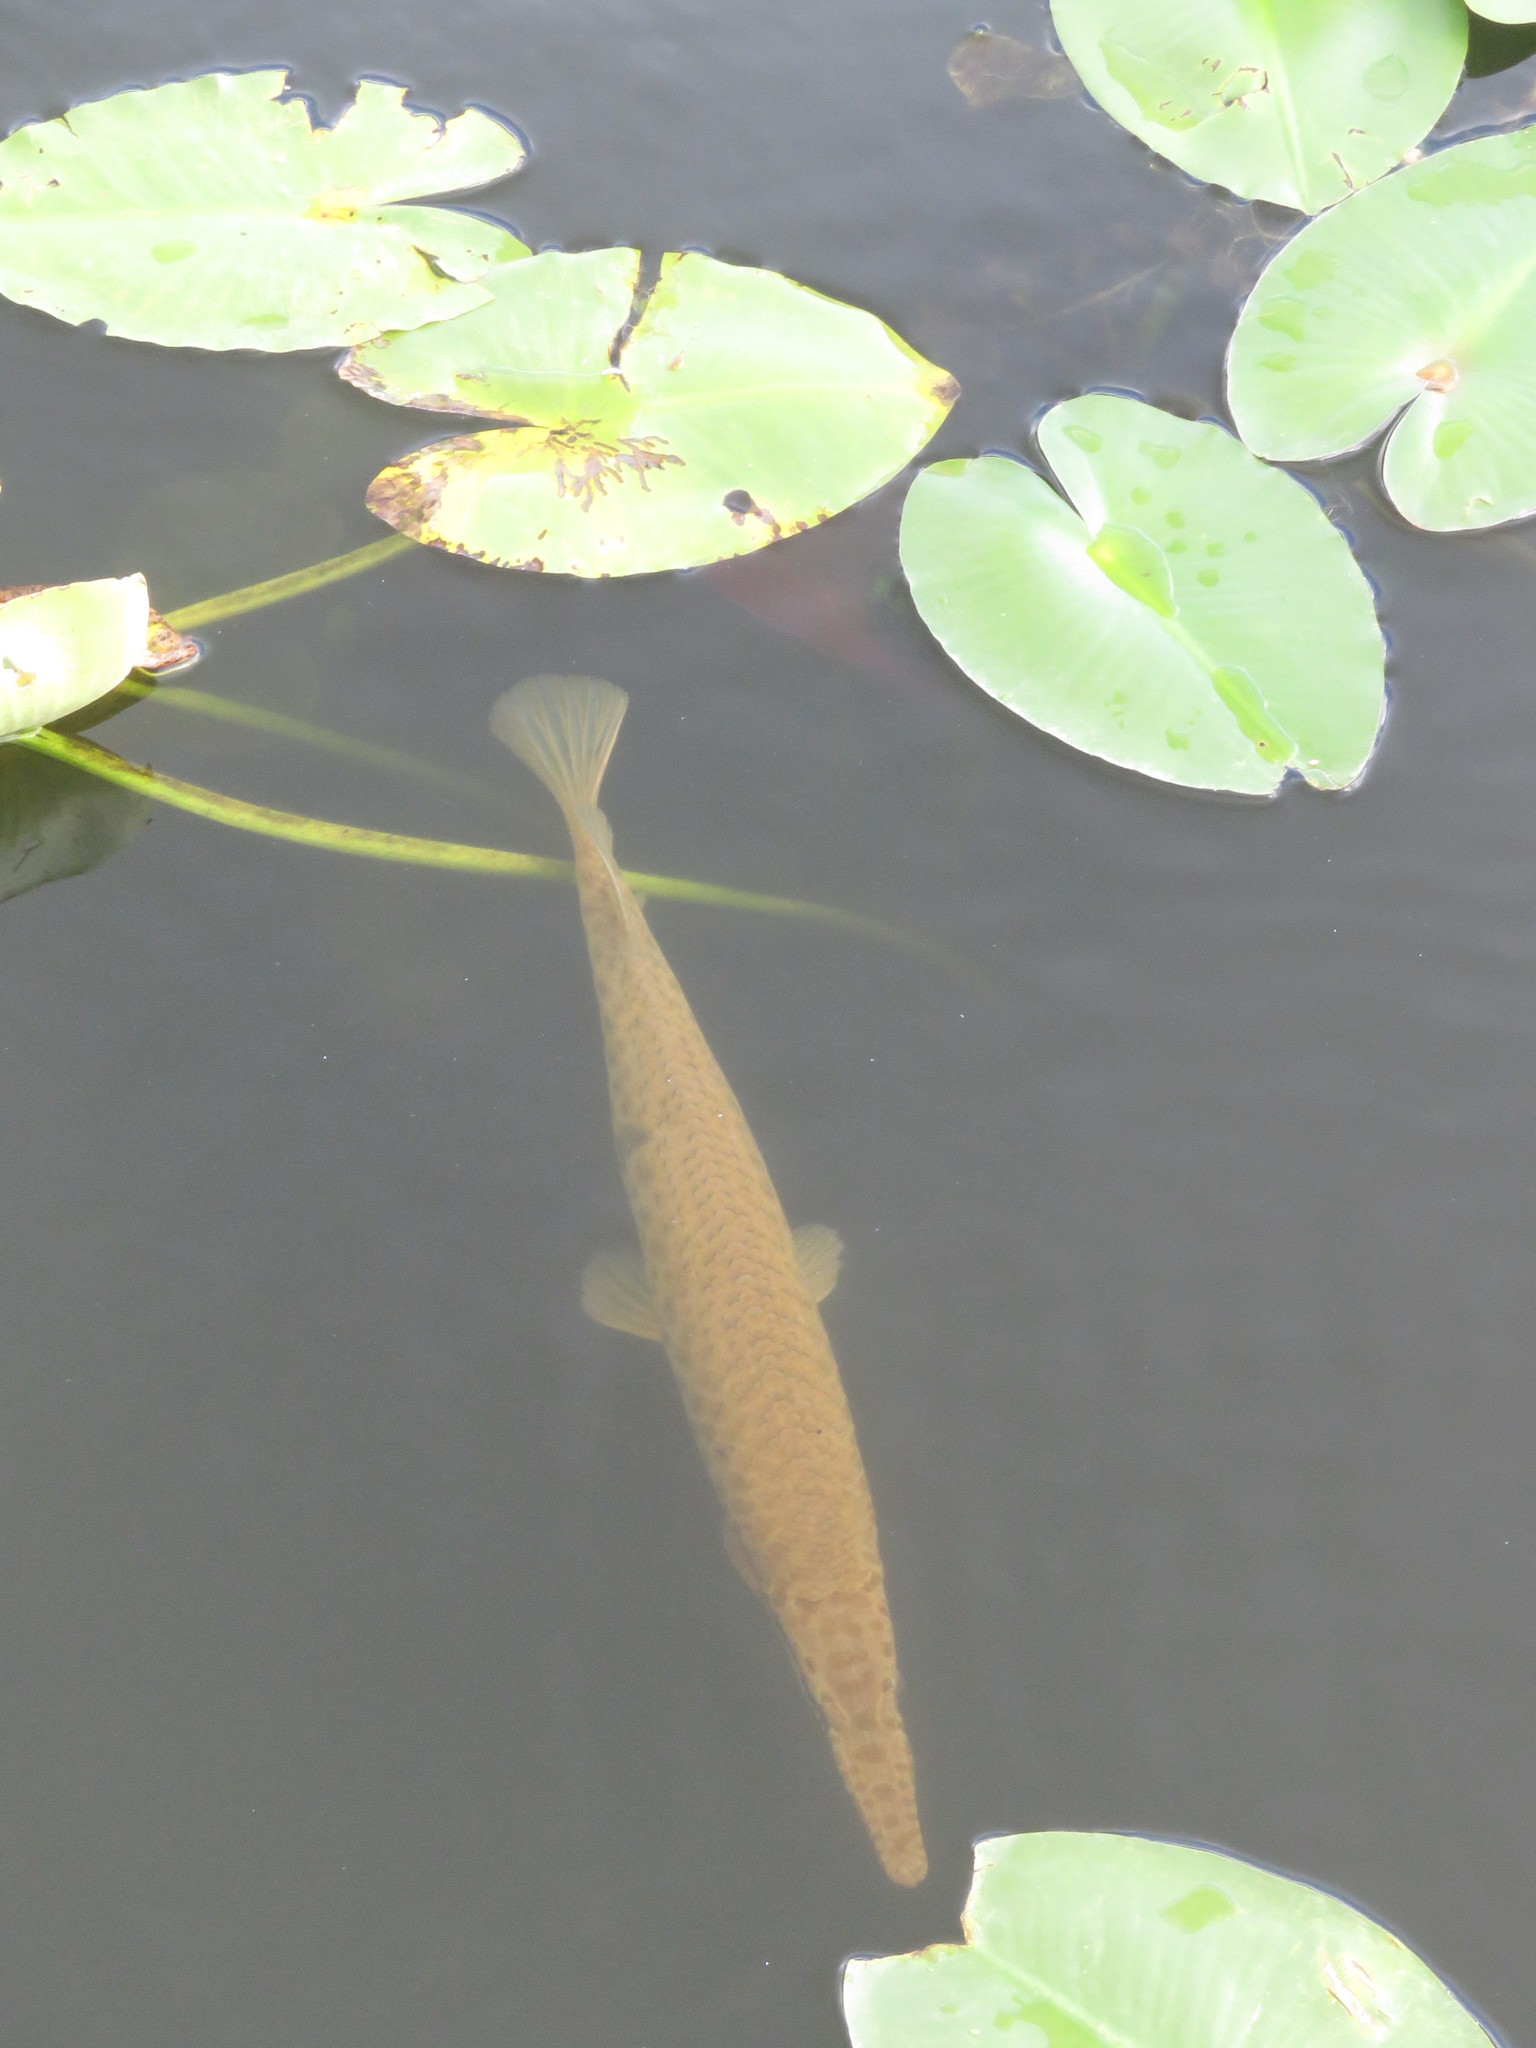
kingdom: Animalia
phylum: Chordata
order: Lepisosteiformes
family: Lepisosteidae
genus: Lepisosteus
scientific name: Lepisosteus platyrhincus
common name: Florida gar
